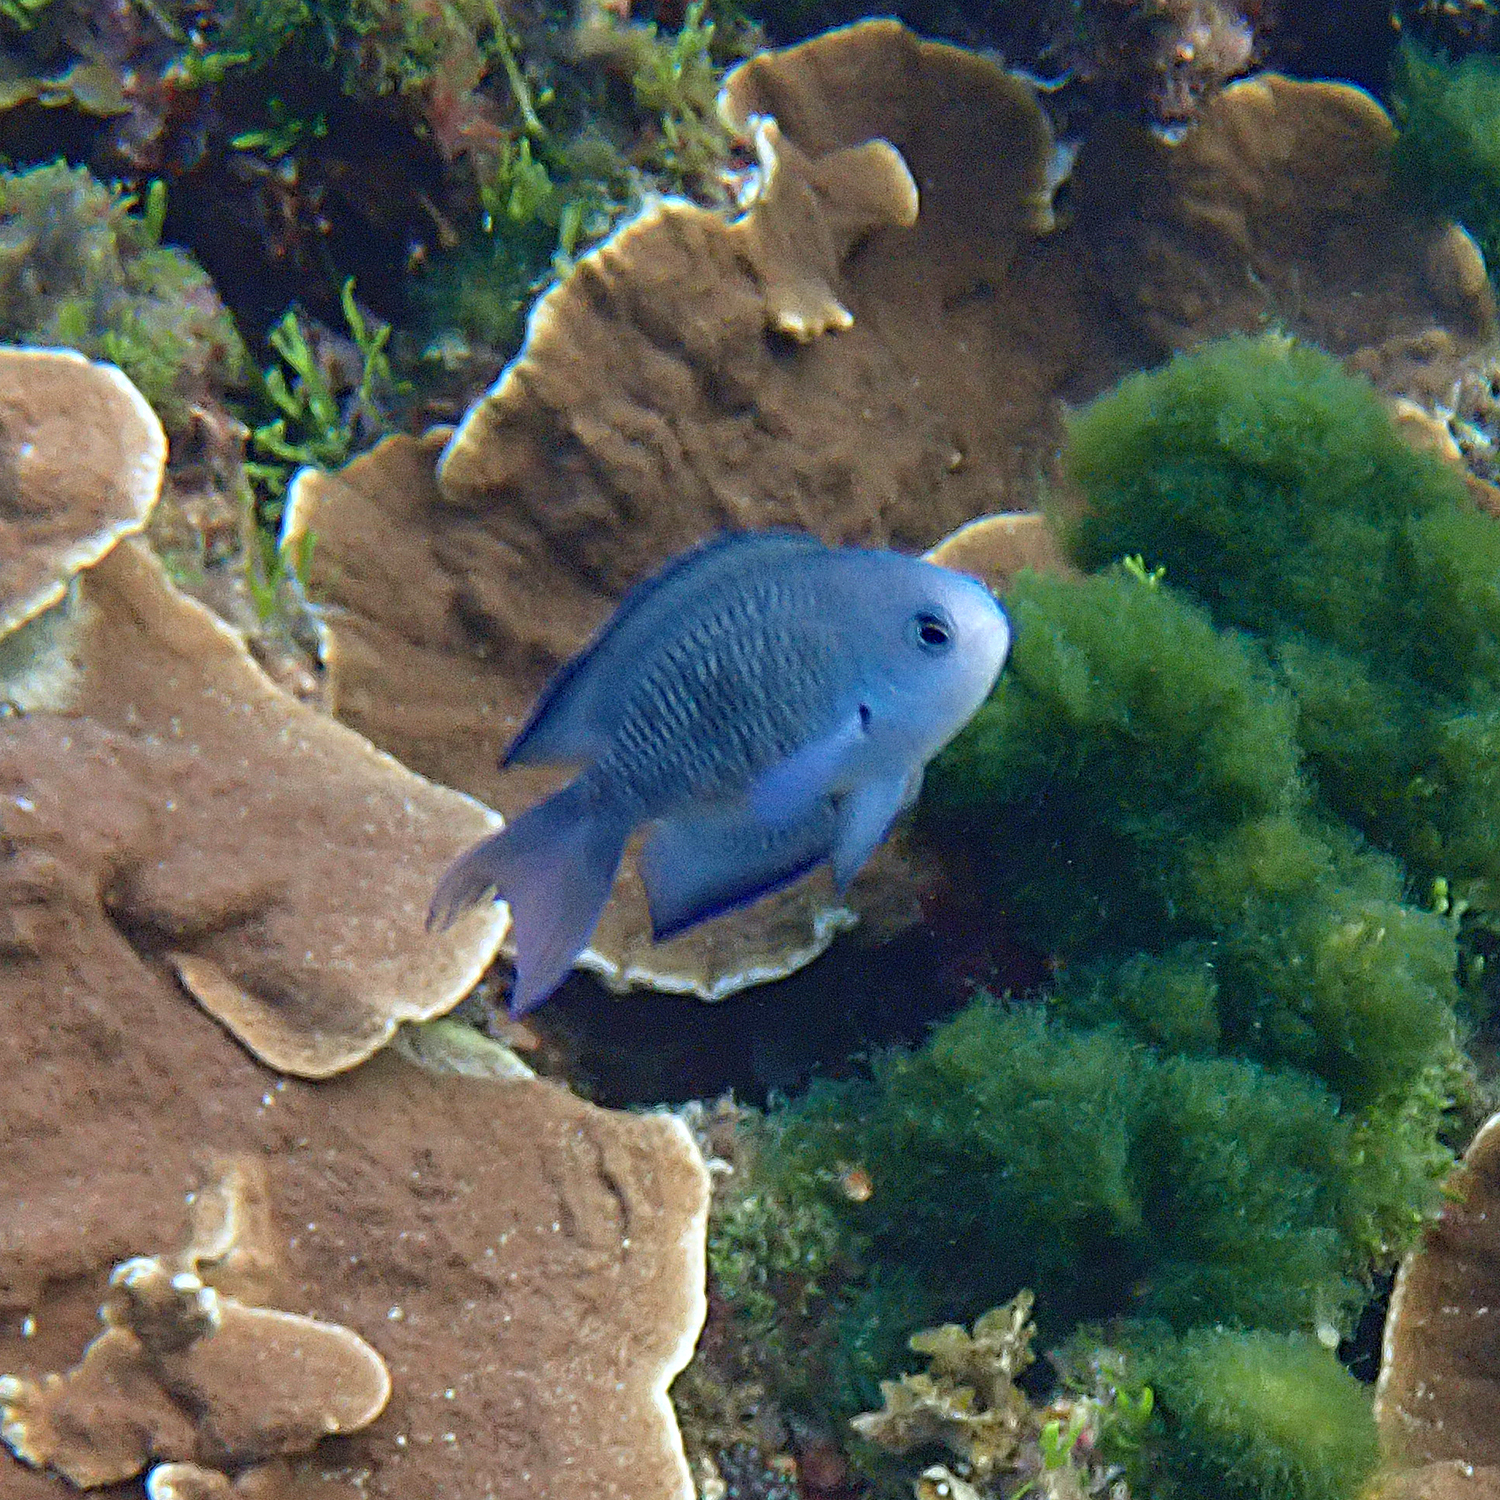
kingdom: Animalia
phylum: Chordata
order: Perciformes
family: Pomacentridae
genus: Chrysiptera
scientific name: Chrysiptera notialis
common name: Southern demoiselle
